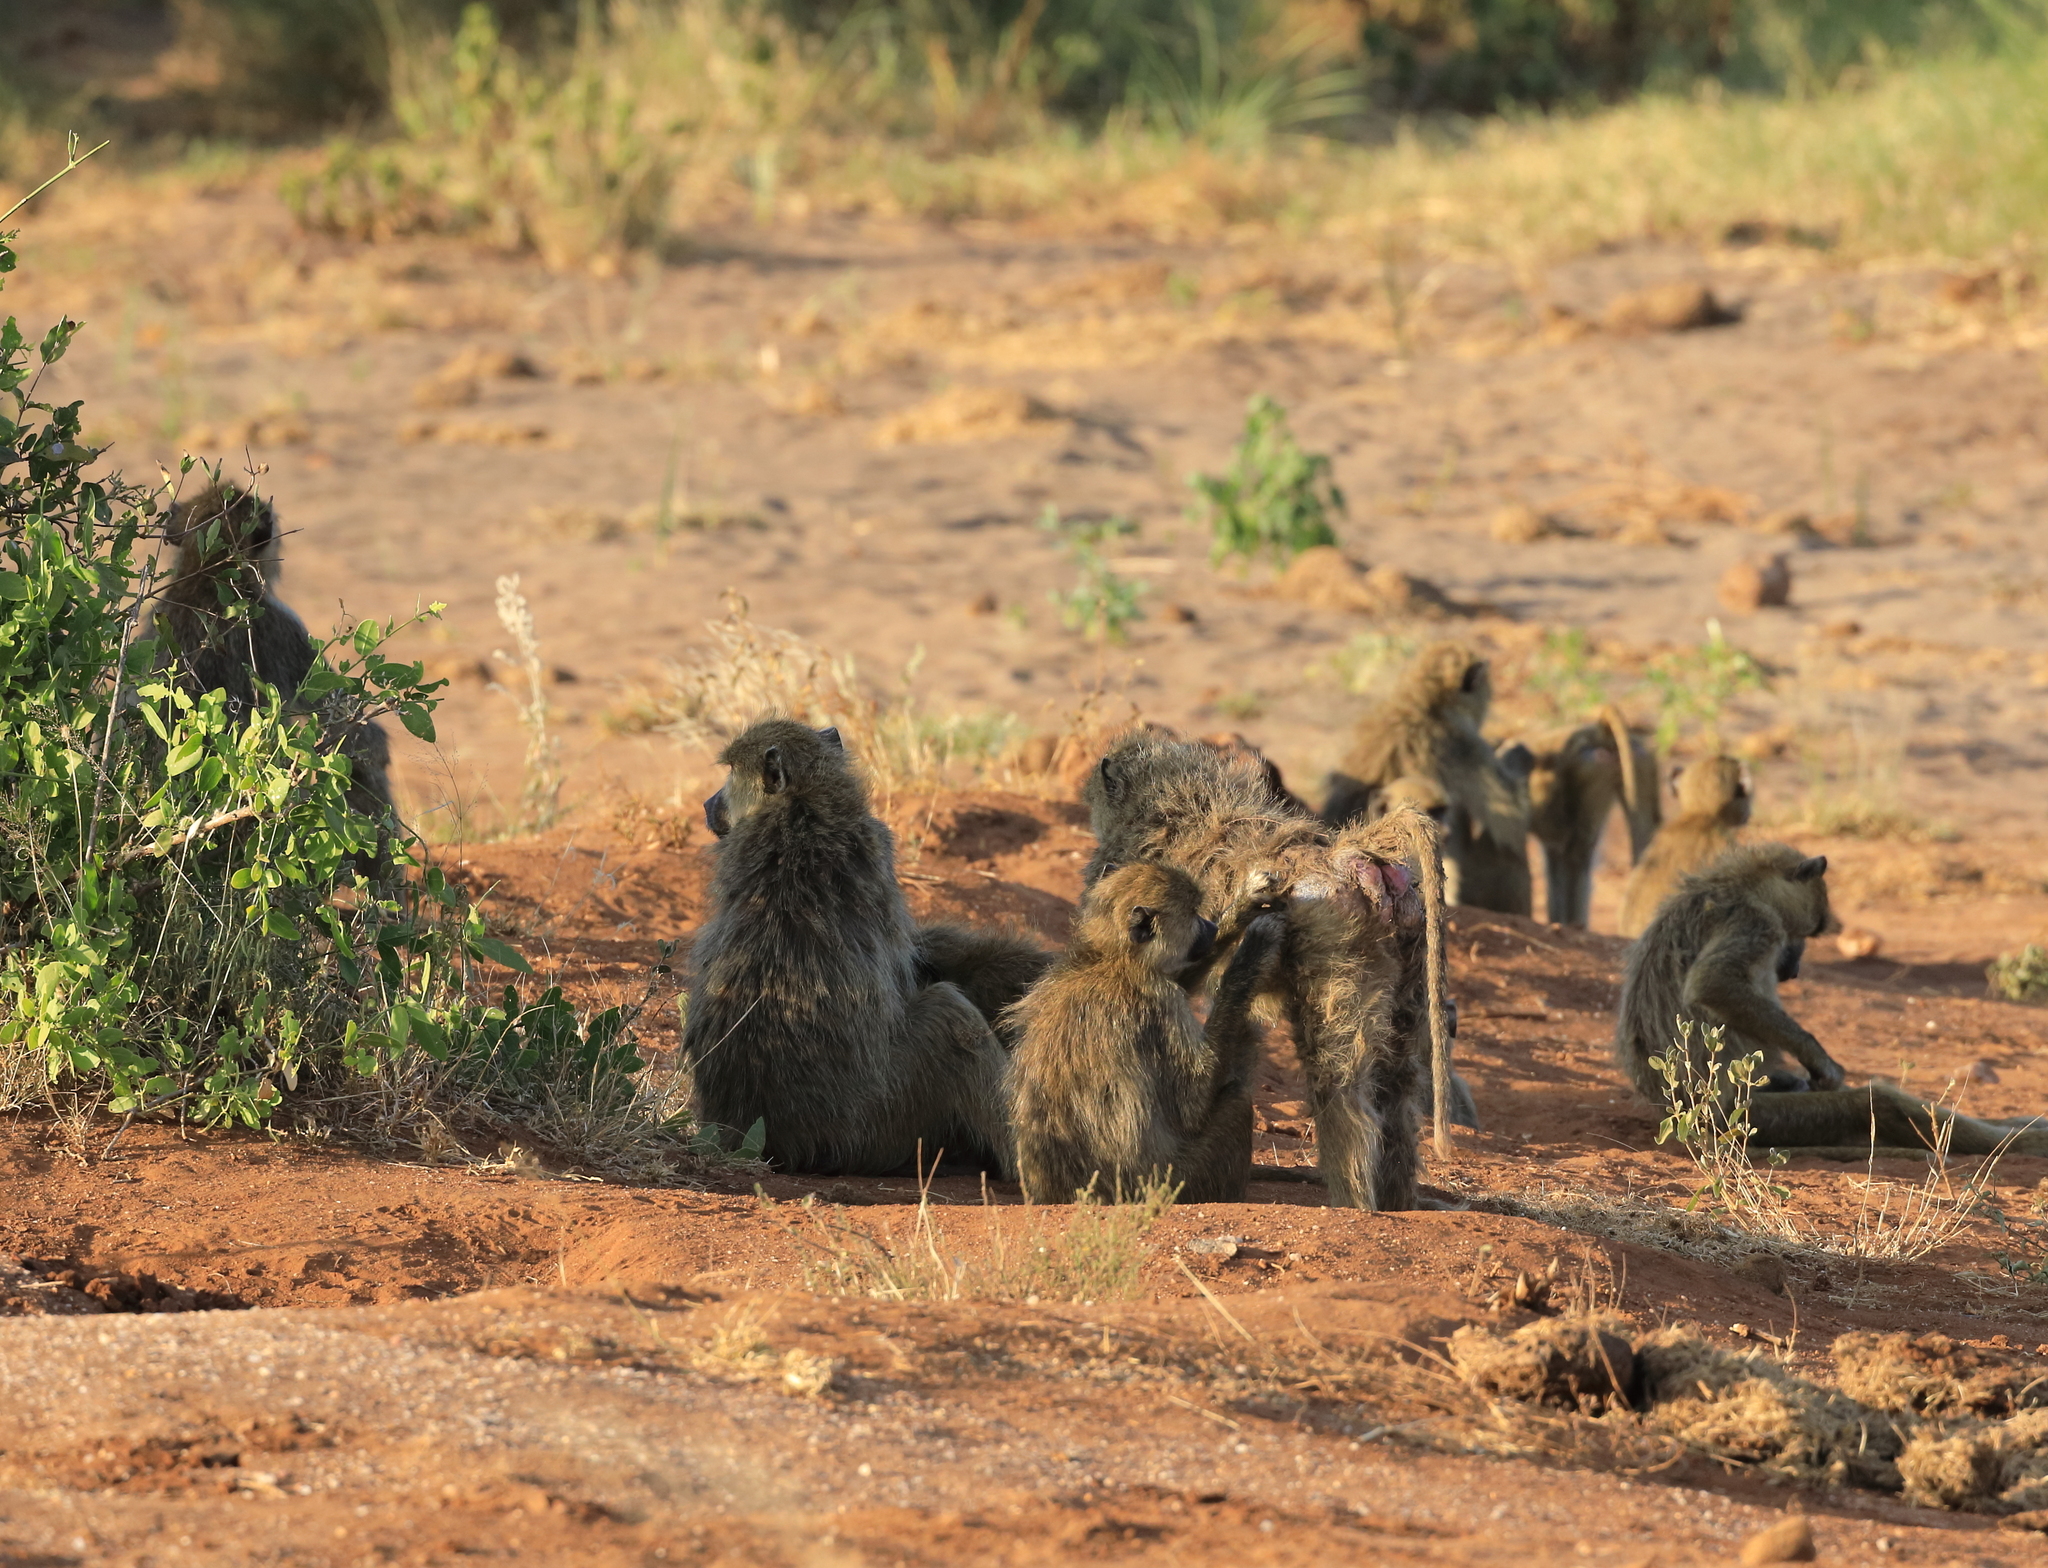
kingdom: Animalia
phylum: Chordata
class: Mammalia
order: Primates
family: Cercopithecidae
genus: Papio
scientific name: Papio cynocephalus
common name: Yellow baboon
